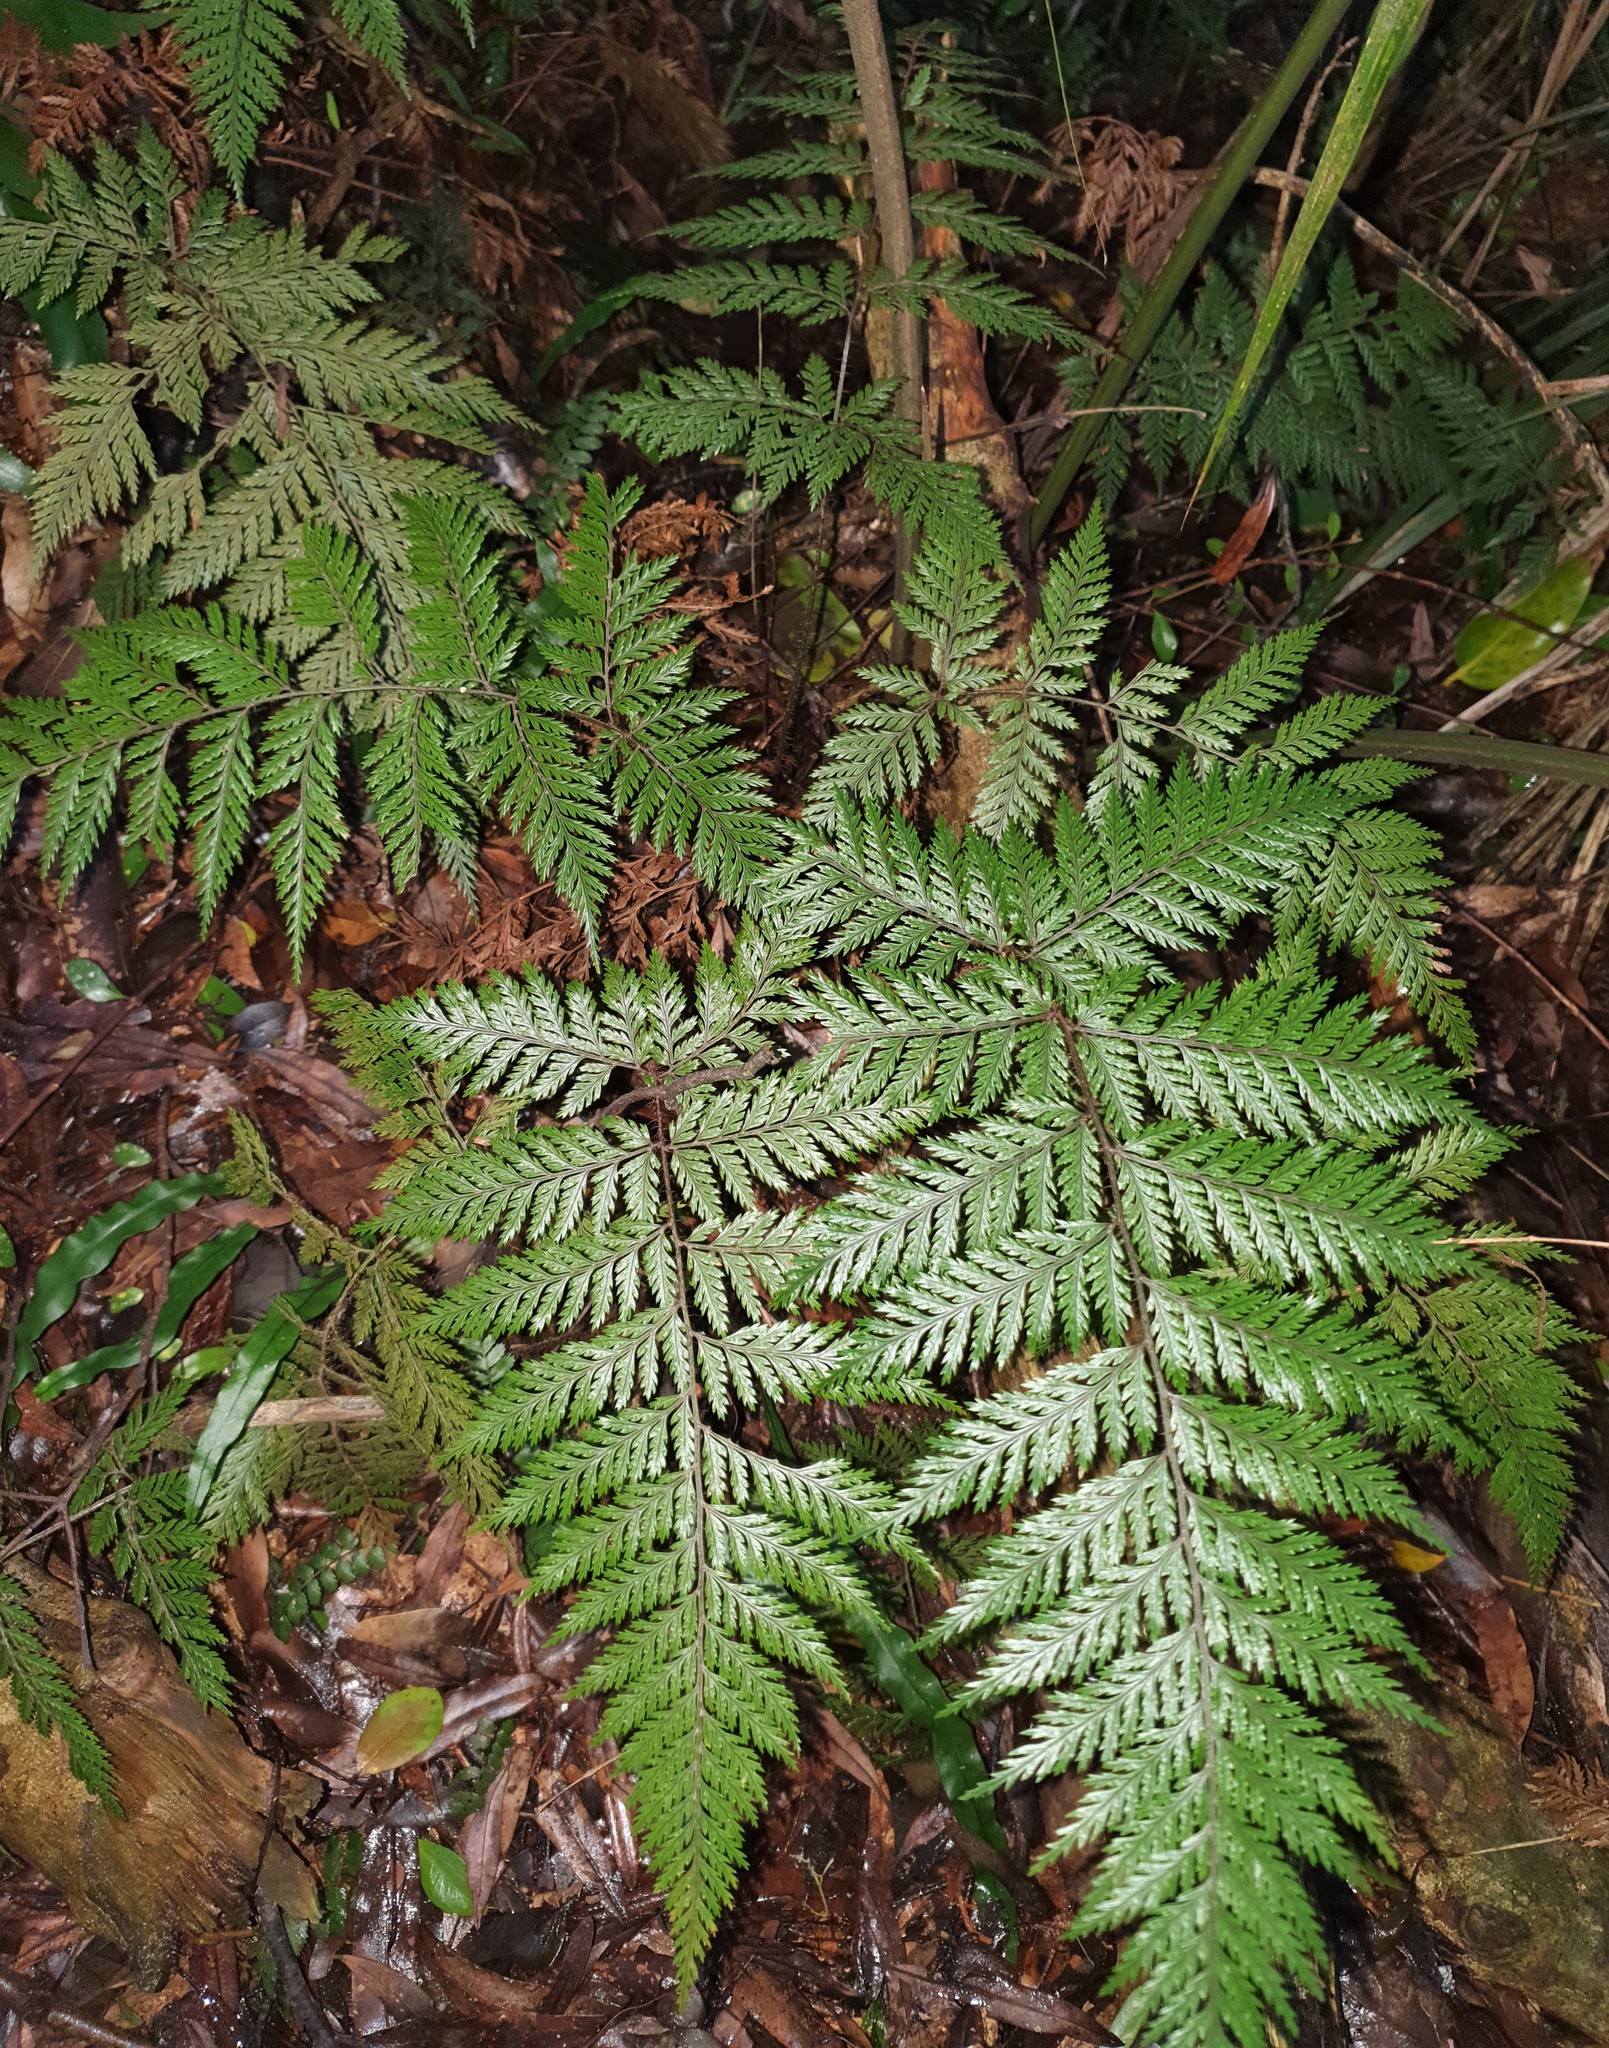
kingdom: Plantae
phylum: Tracheophyta
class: Polypodiopsida
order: Polypodiales
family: Dryopteridaceae
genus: Lastreopsis
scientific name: Lastreopsis hispida
